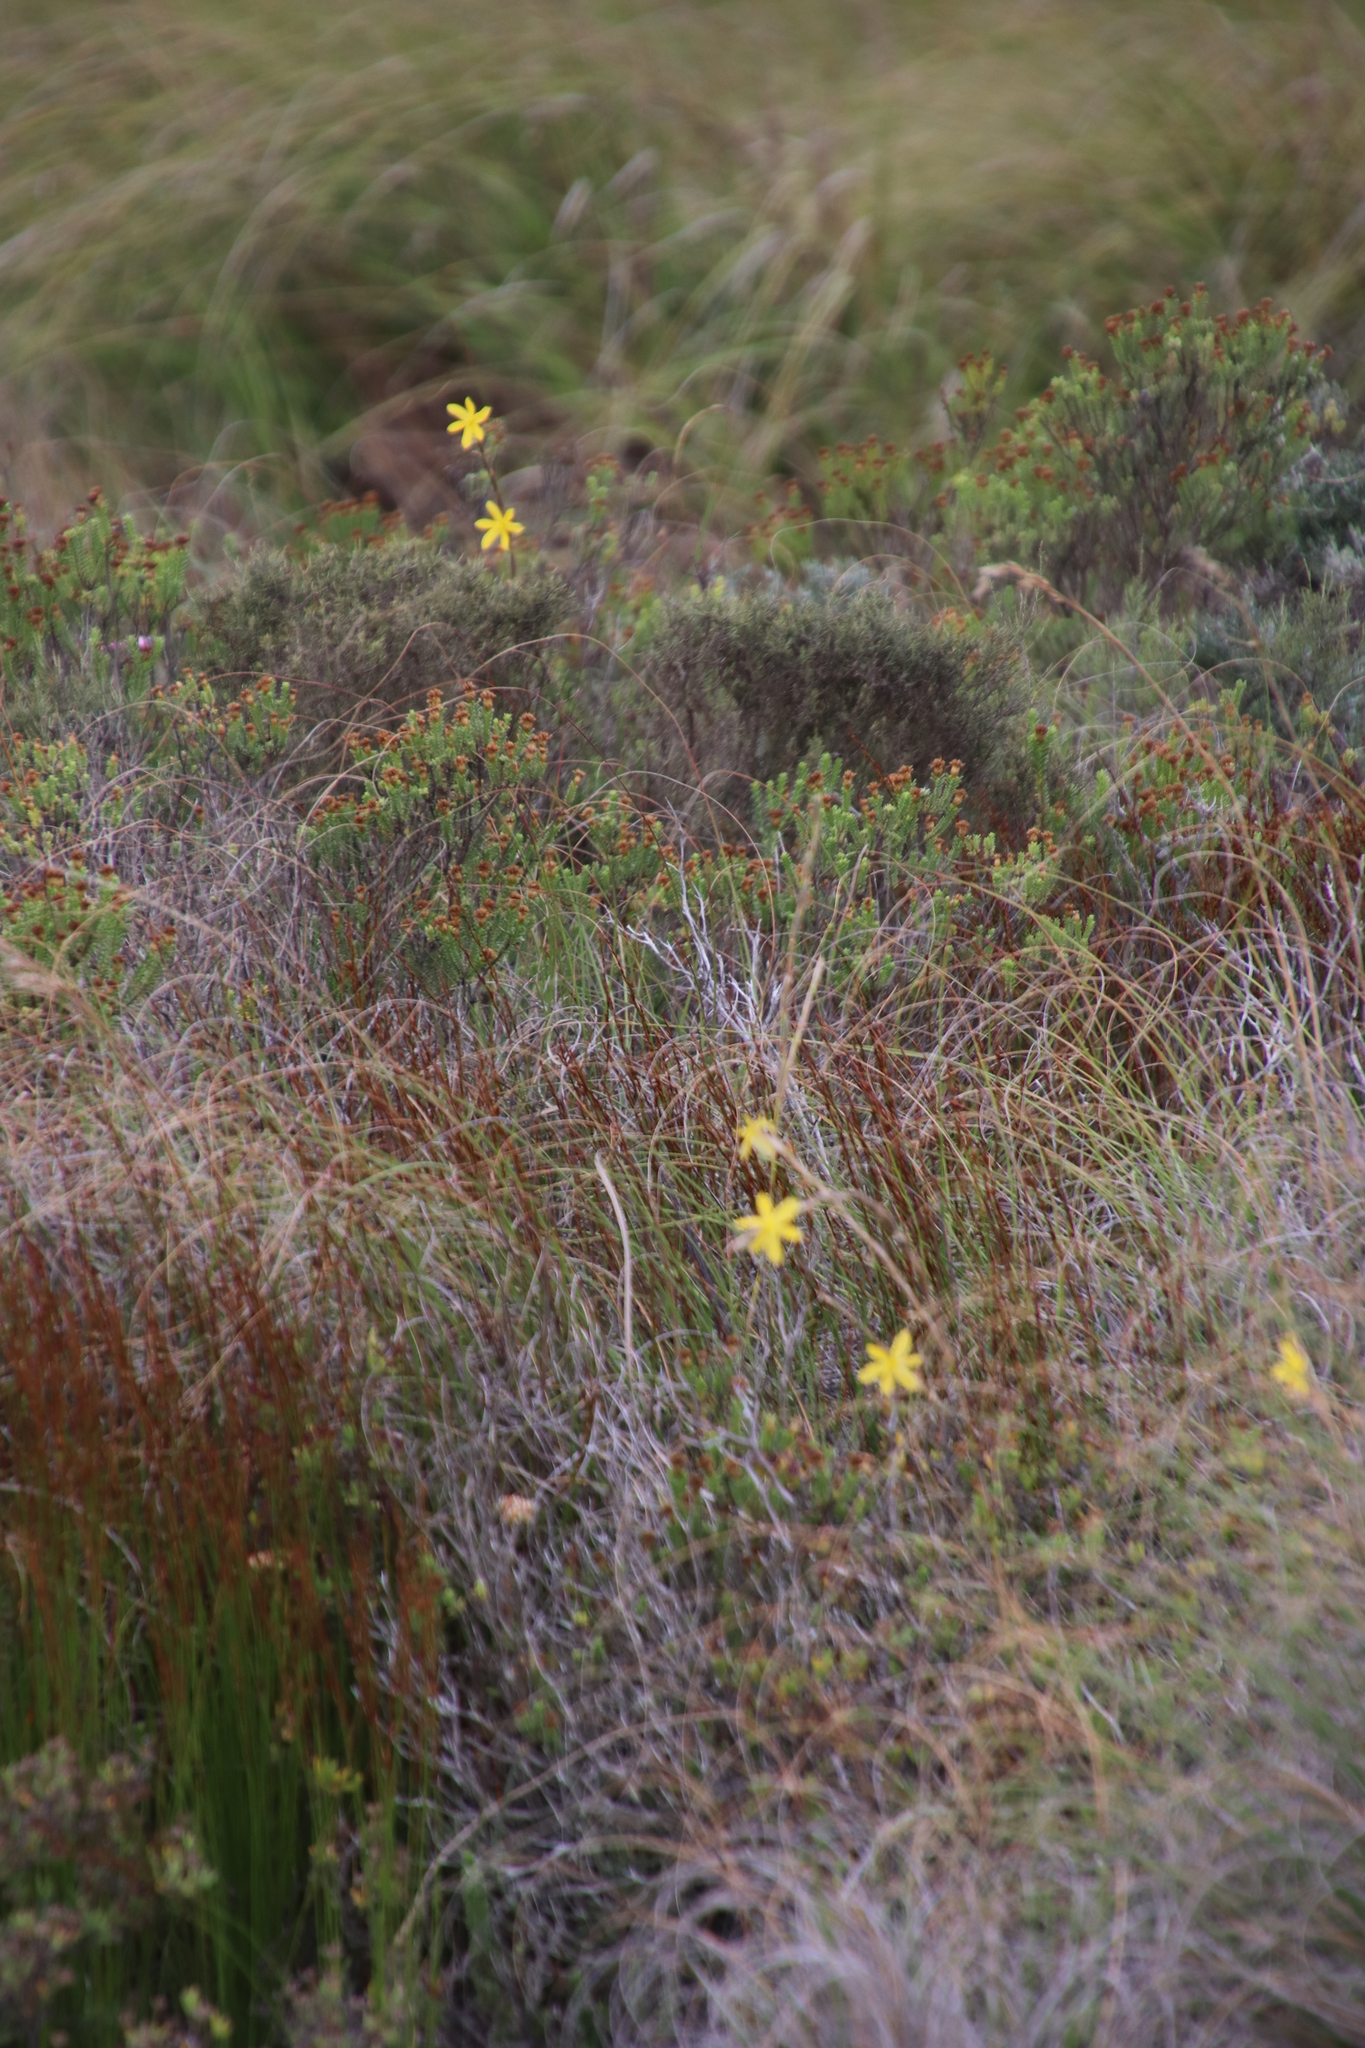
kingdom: Plantae
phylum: Tracheophyta
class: Liliopsida
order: Poales
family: Restionaceae
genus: Elegia
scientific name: Elegia recta
